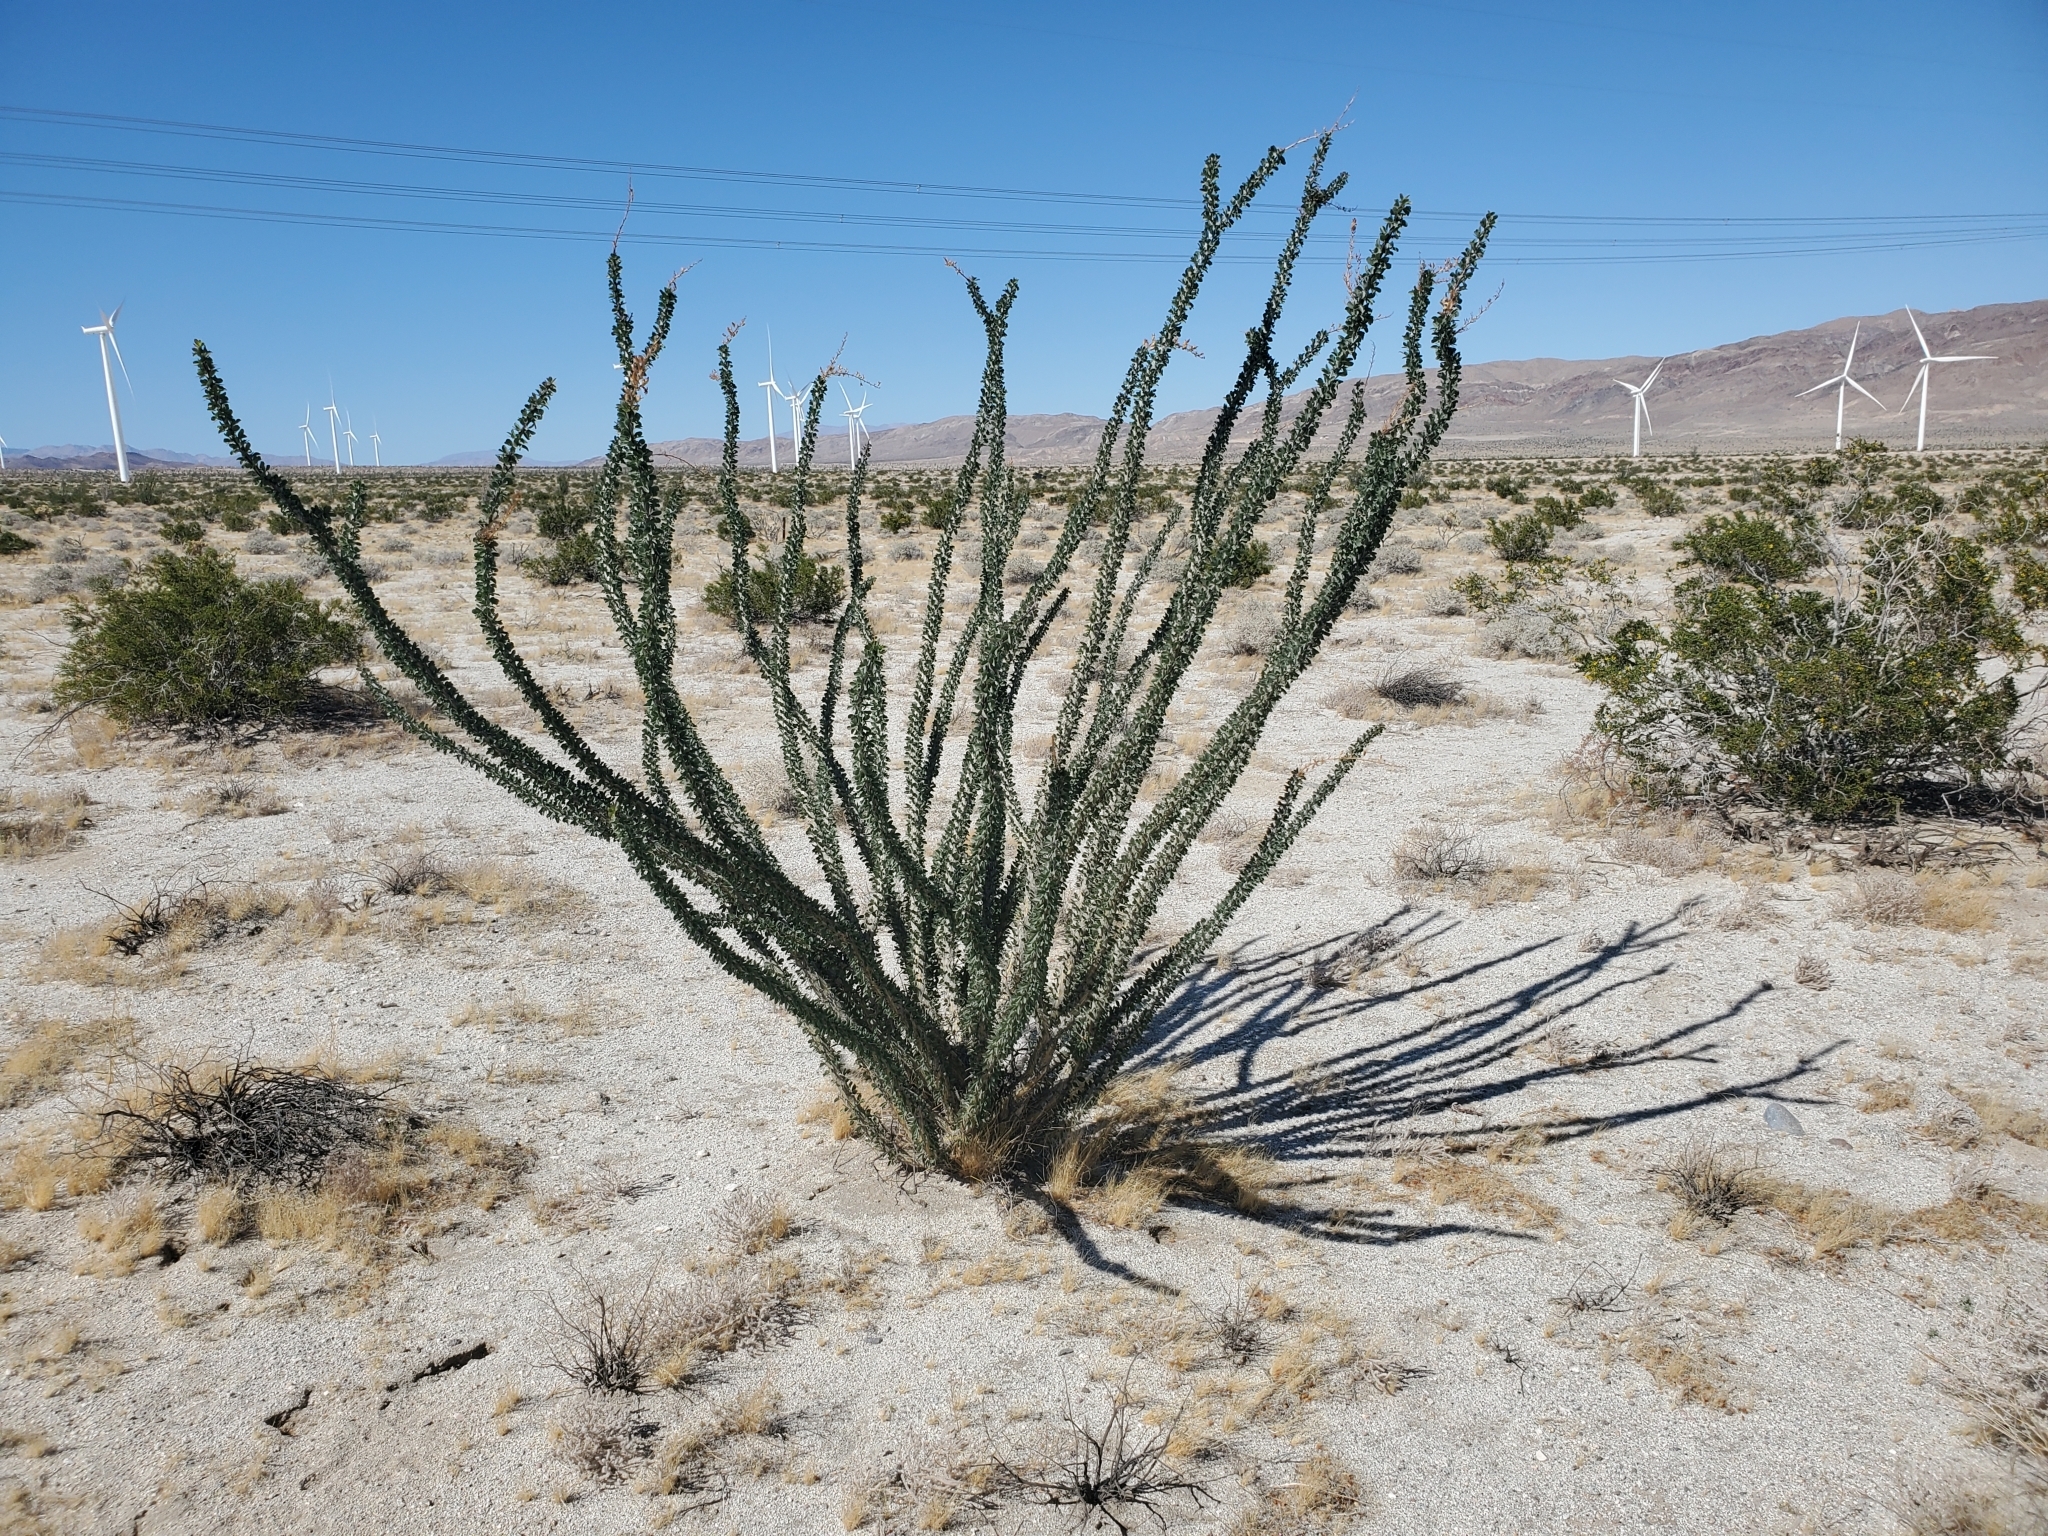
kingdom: Plantae
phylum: Tracheophyta
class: Magnoliopsida
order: Ericales
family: Fouquieriaceae
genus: Fouquieria
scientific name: Fouquieria splendens
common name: Vine-cactus
